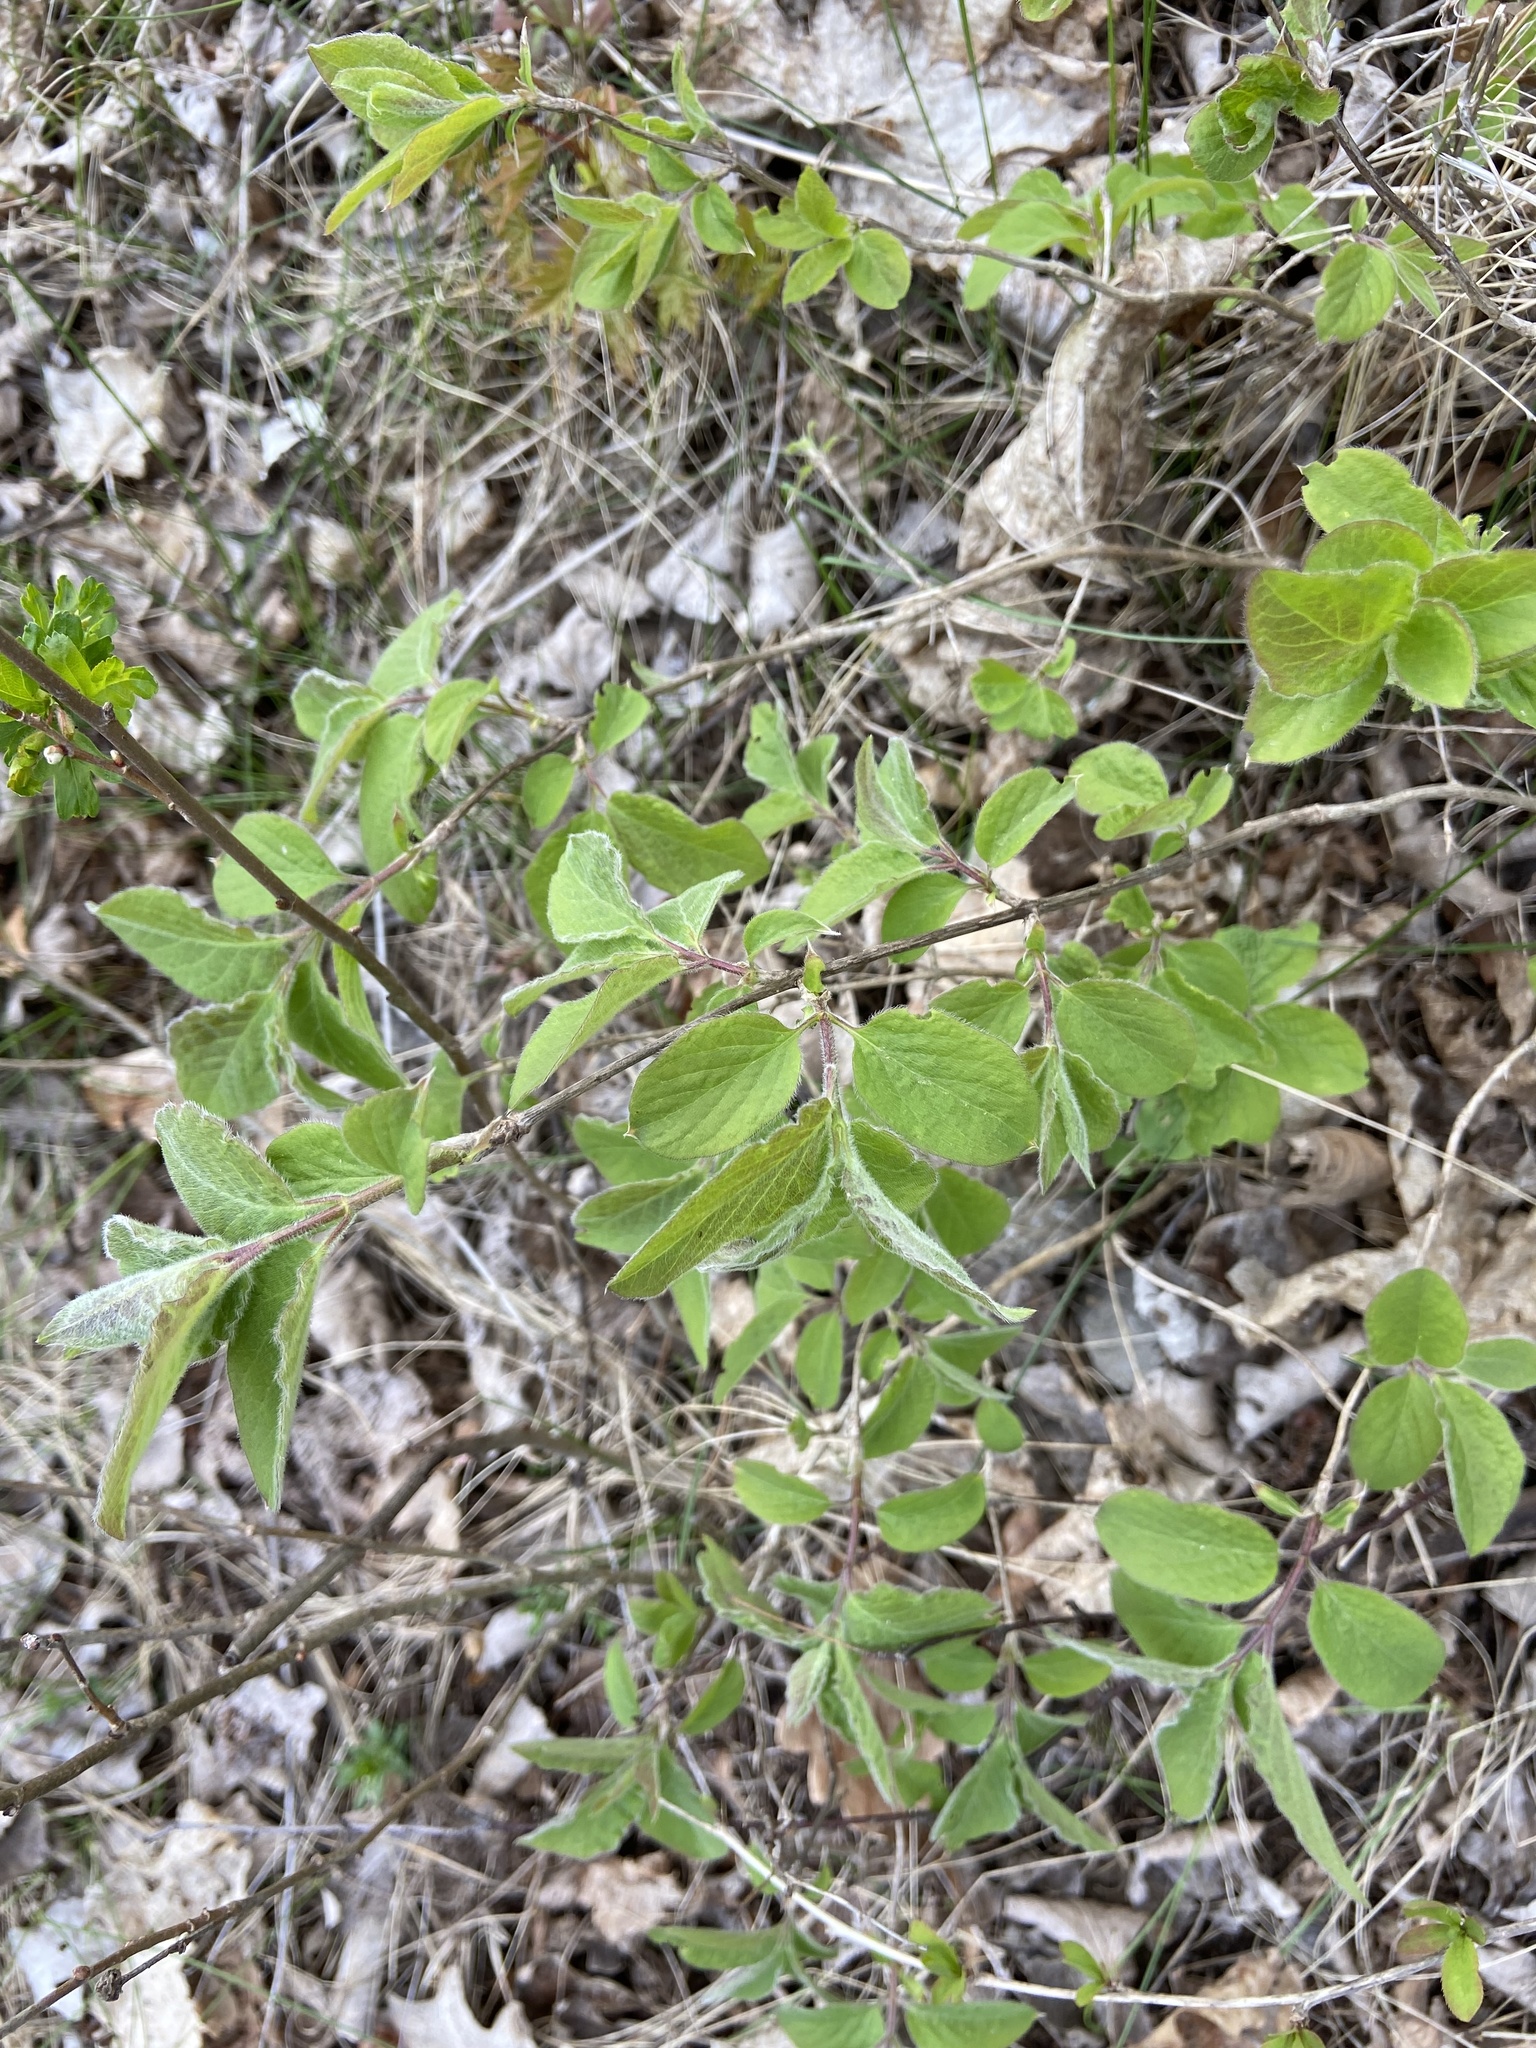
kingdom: Plantae
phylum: Tracheophyta
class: Magnoliopsida
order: Dipsacales
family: Caprifoliaceae
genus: Lonicera
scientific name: Lonicera xylosteum
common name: Fly honeysuckle
